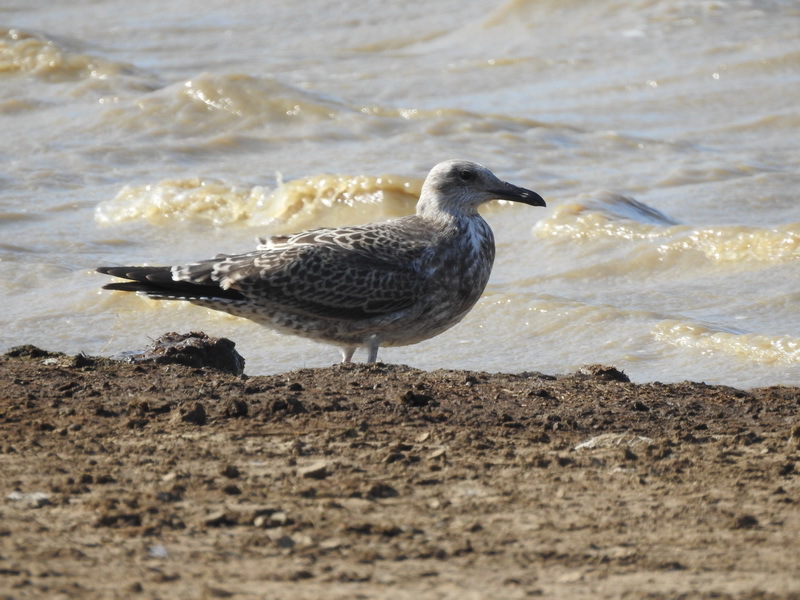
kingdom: Animalia
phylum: Chordata
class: Aves
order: Charadriiformes
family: Laridae
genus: Larus
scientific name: Larus cachinnans
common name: Caspian gull
